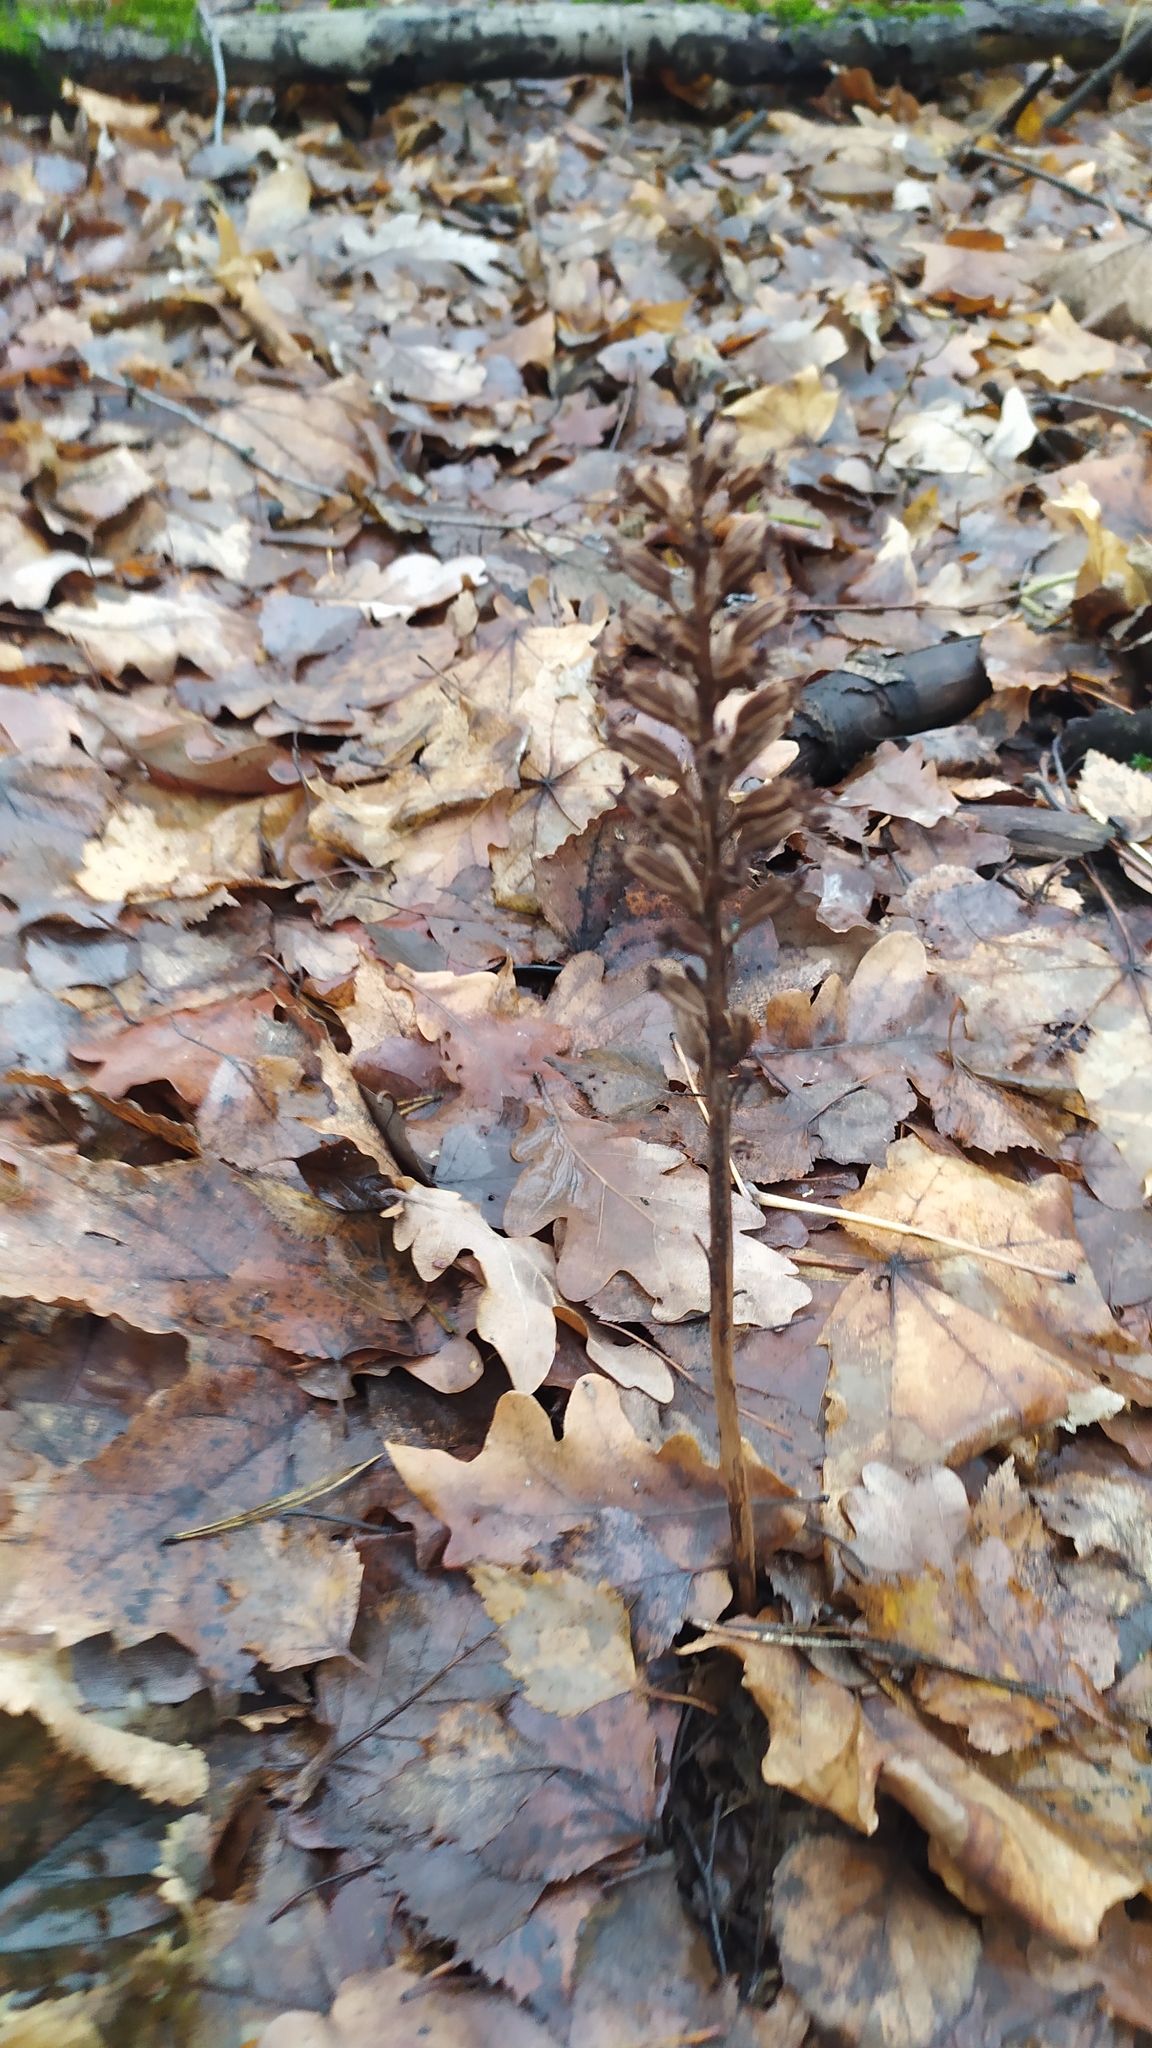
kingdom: Plantae
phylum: Tracheophyta
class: Liliopsida
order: Asparagales
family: Orchidaceae
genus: Neottia
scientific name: Neottia nidus-avis
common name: Bird's-nest orchid
